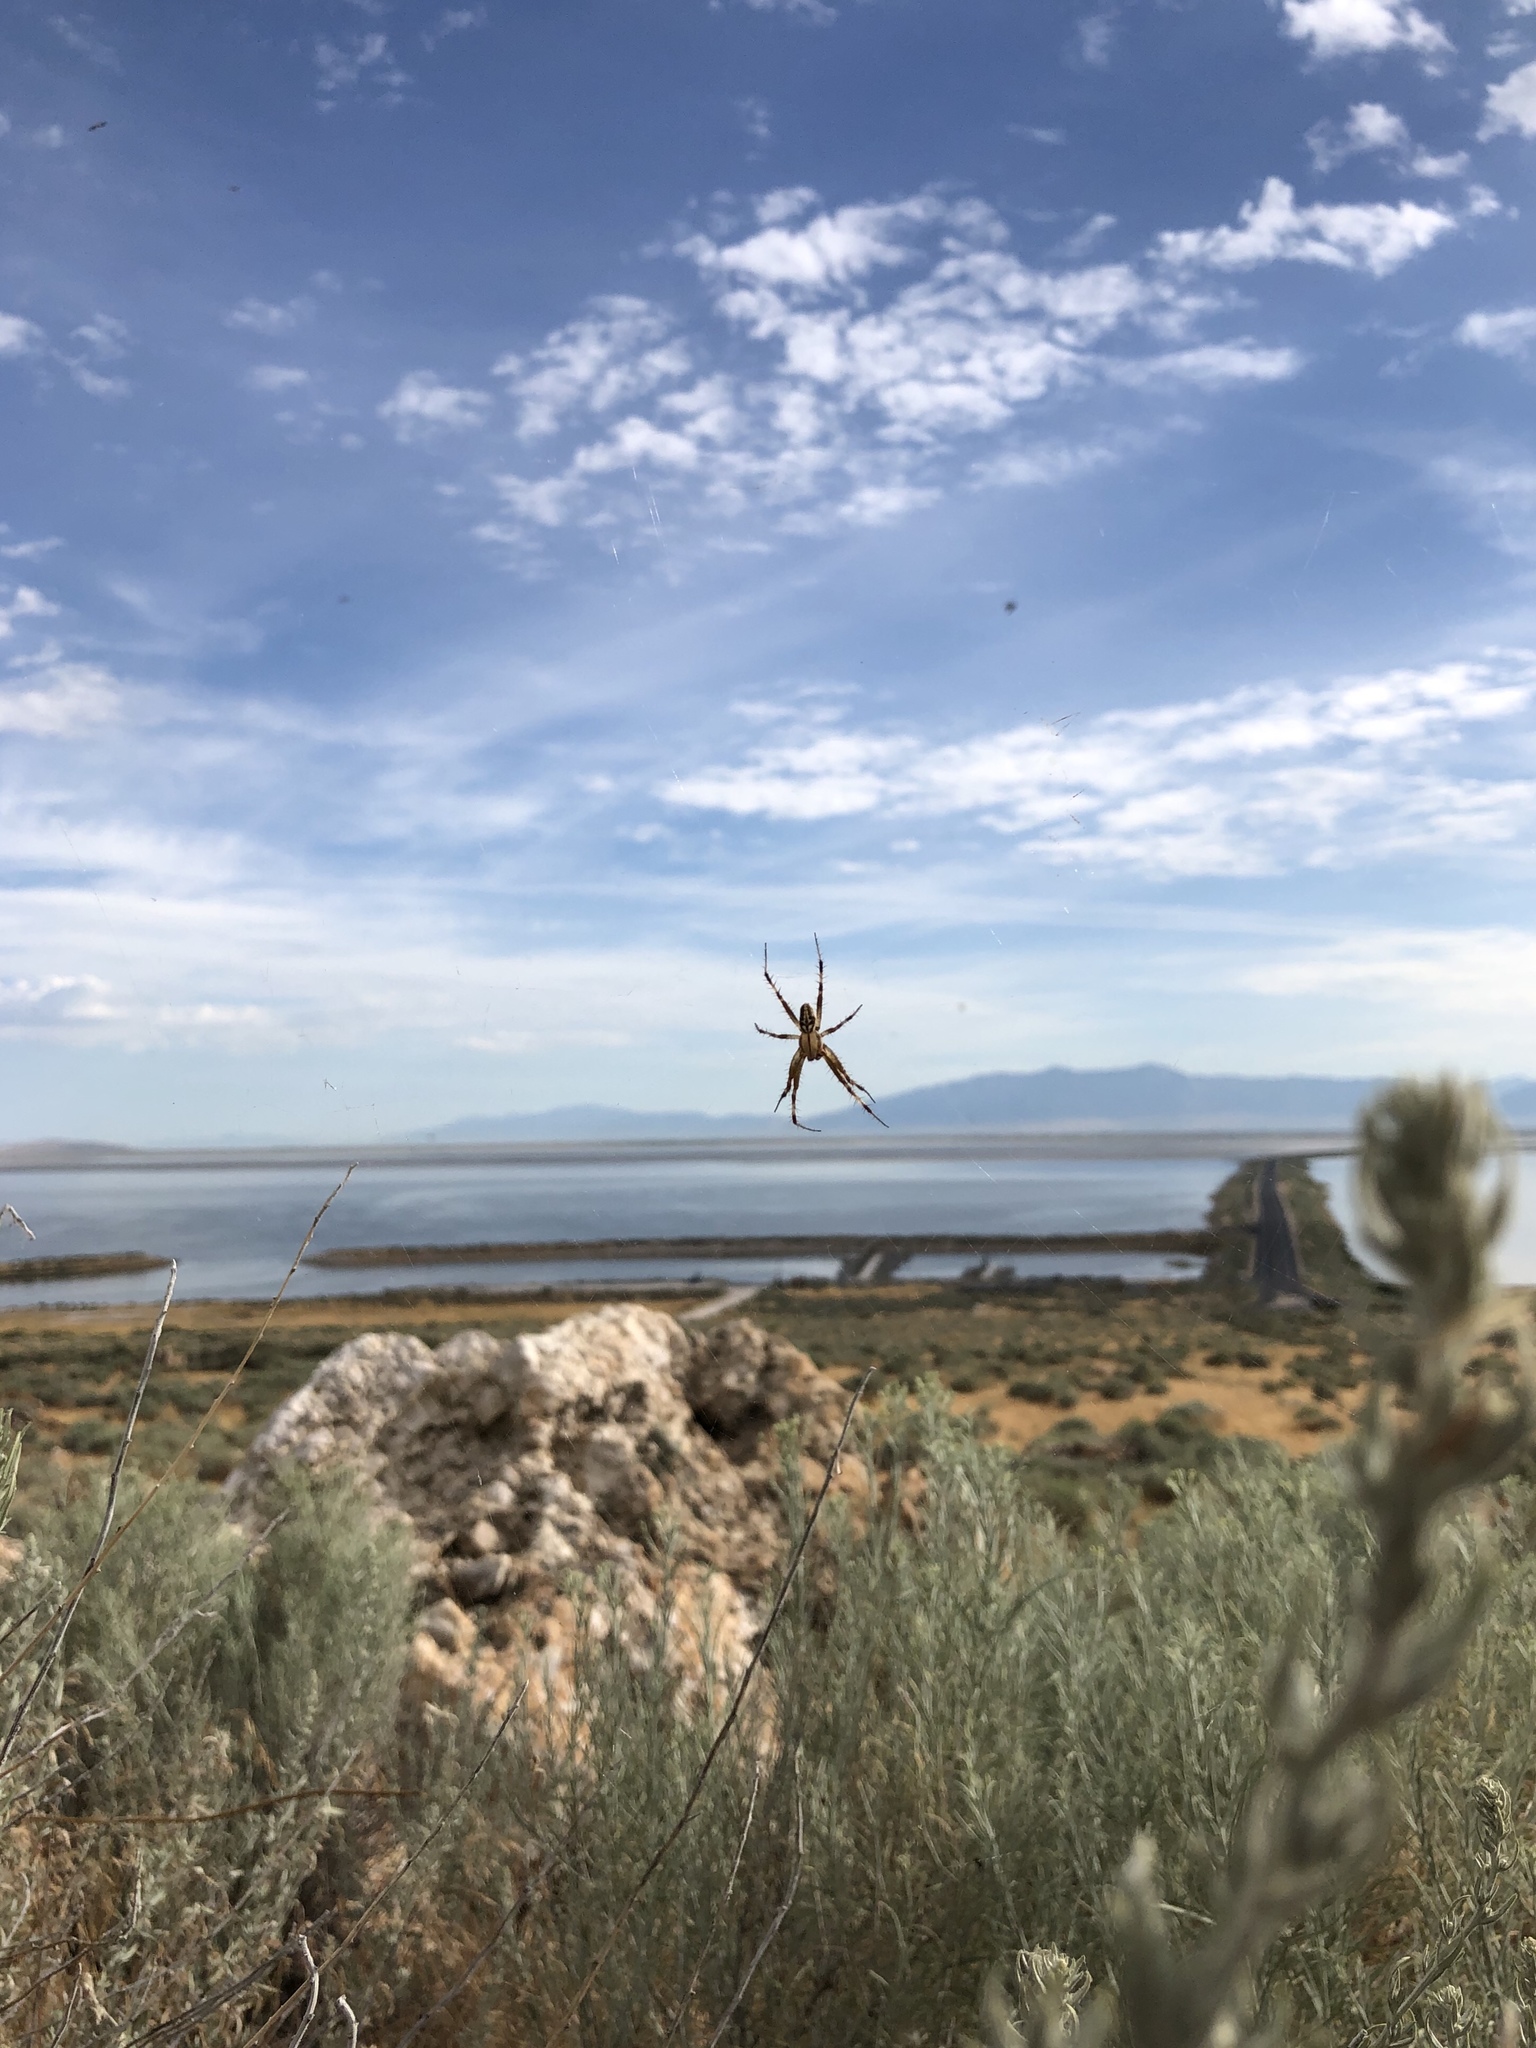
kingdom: Animalia
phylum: Arthropoda
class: Arachnida
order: Araneae
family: Araneidae
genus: Neoscona
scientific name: Neoscona oaxacensis
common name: Orb weavers
